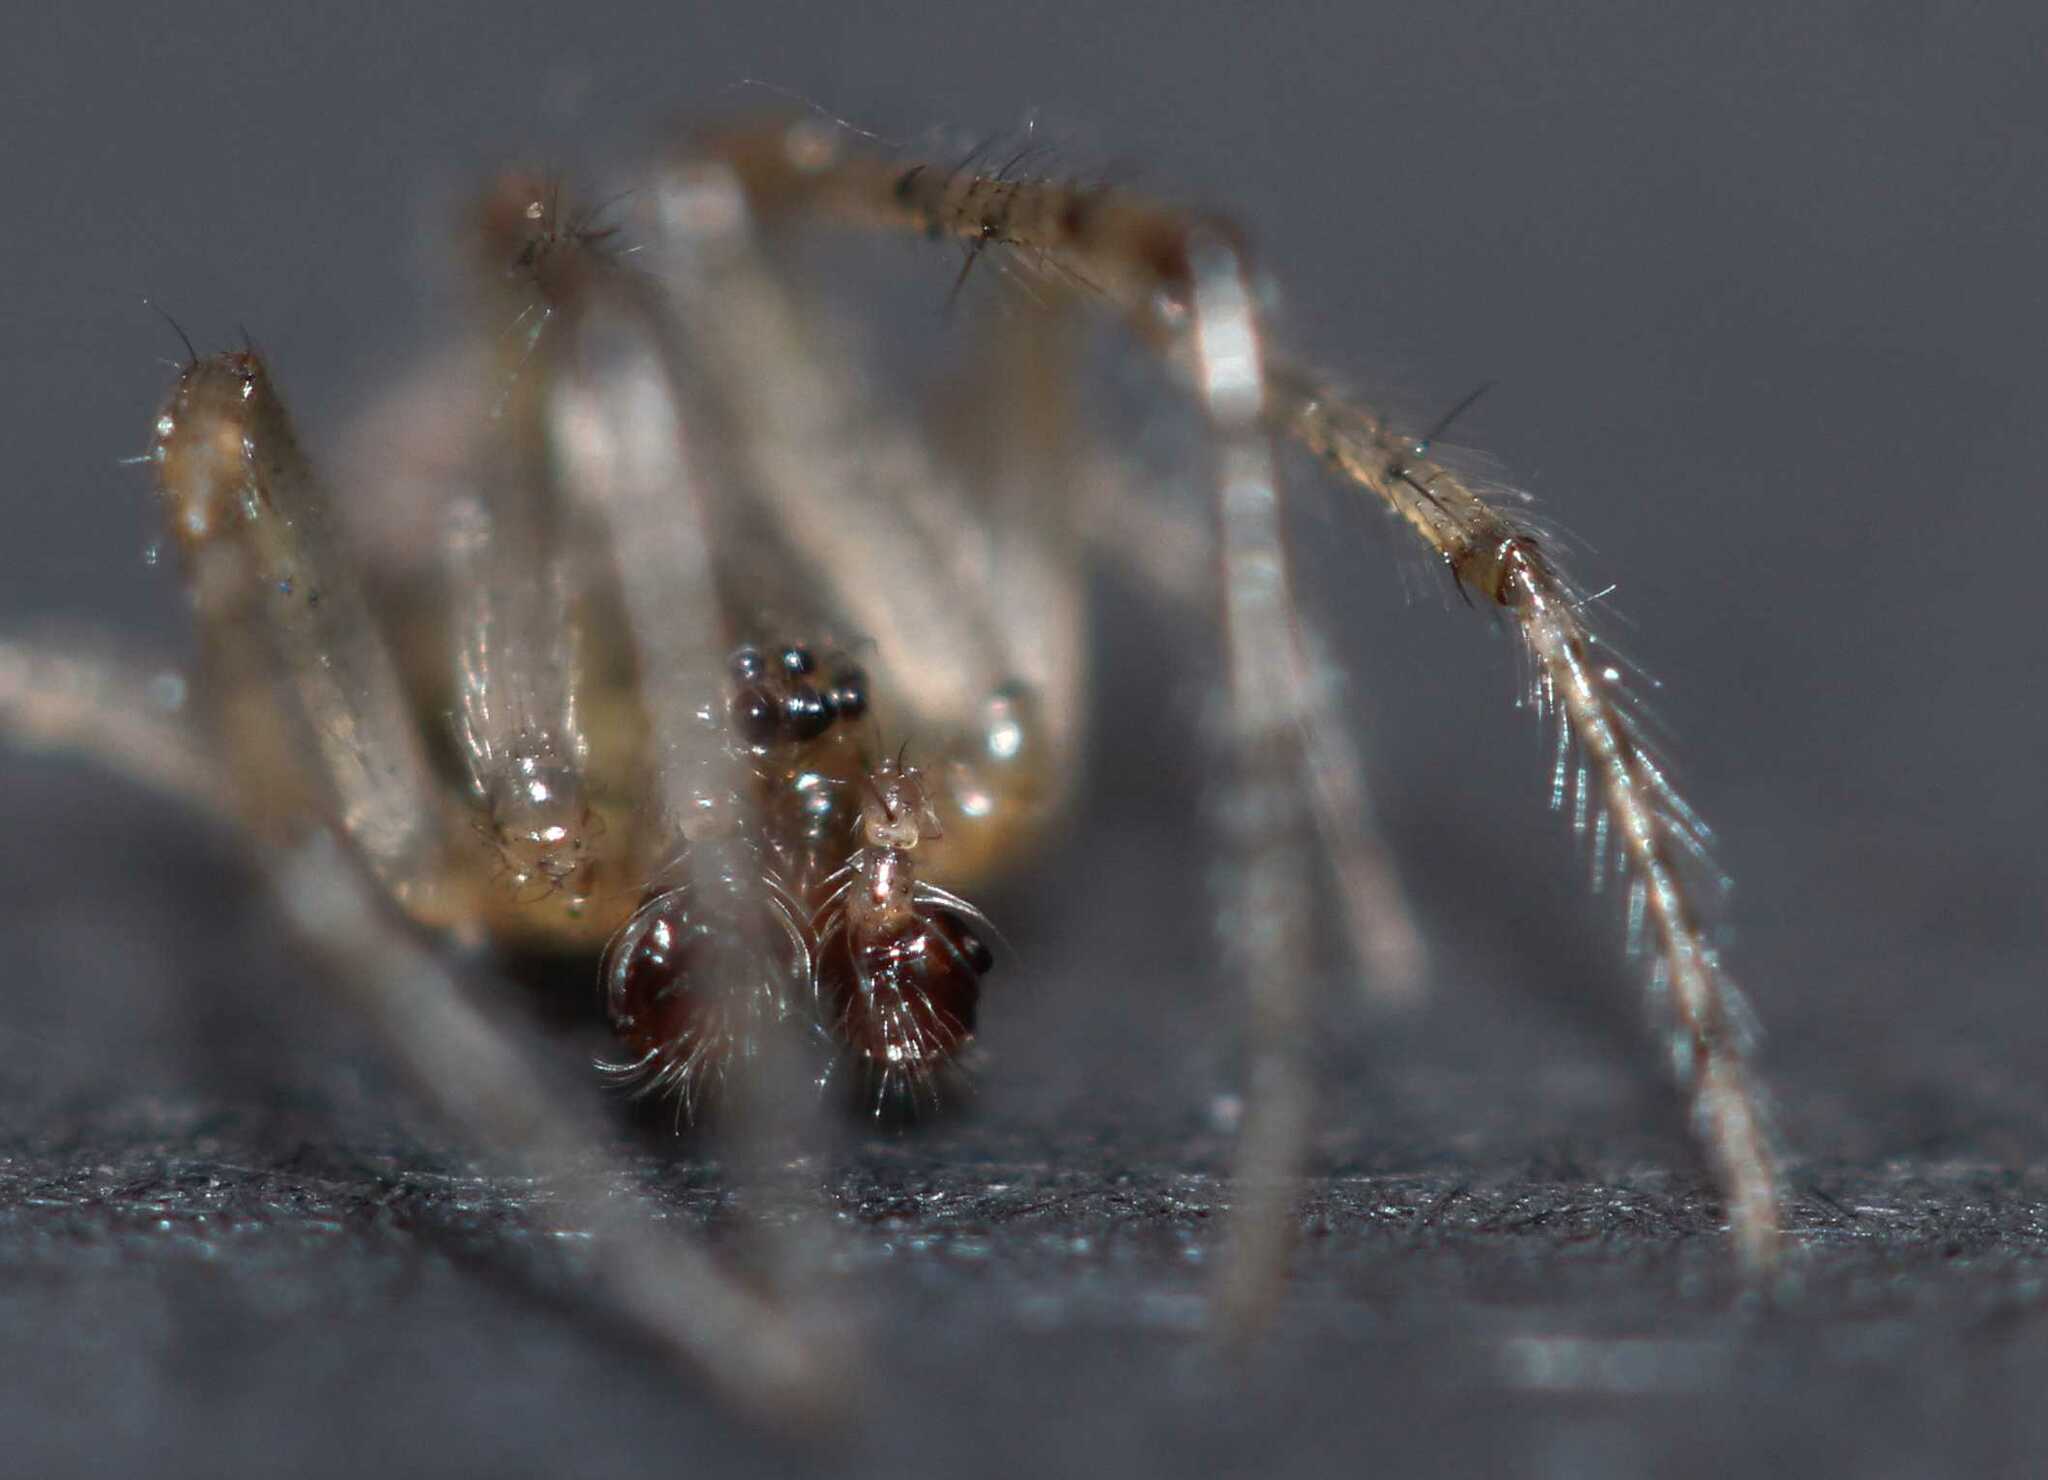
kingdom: Animalia
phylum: Arthropoda
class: Arachnida
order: Araneae
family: Araneidae
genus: Zygiella
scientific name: Zygiella x-notata
